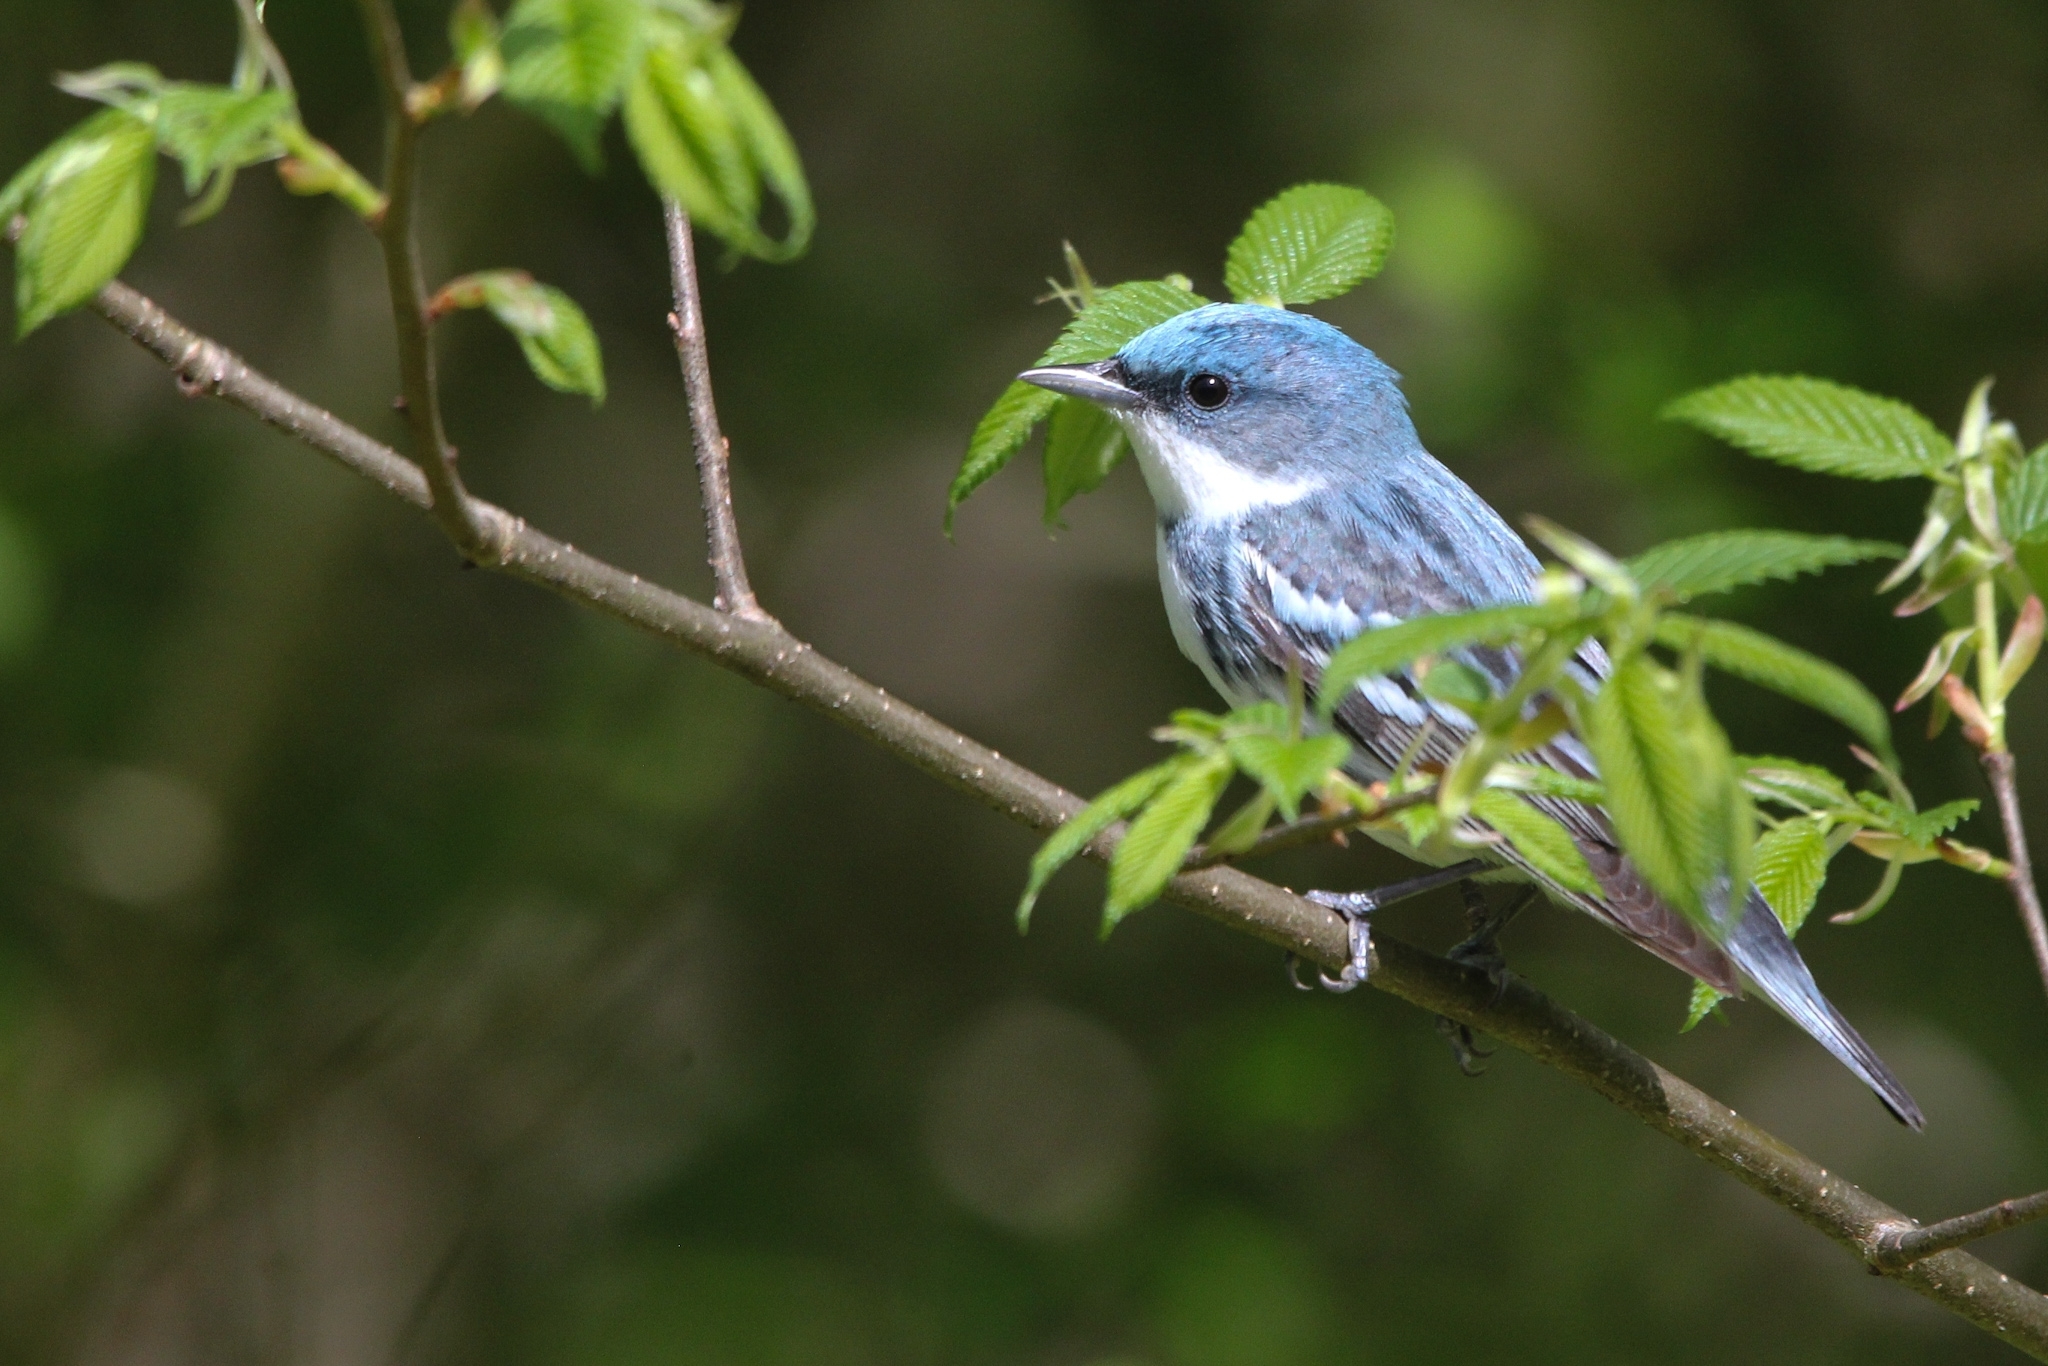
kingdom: Animalia
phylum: Chordata
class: Aves
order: Passeriformes
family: Parulidae
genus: Setophaga
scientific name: Setophaga cerulea
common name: Cerulean warbler
